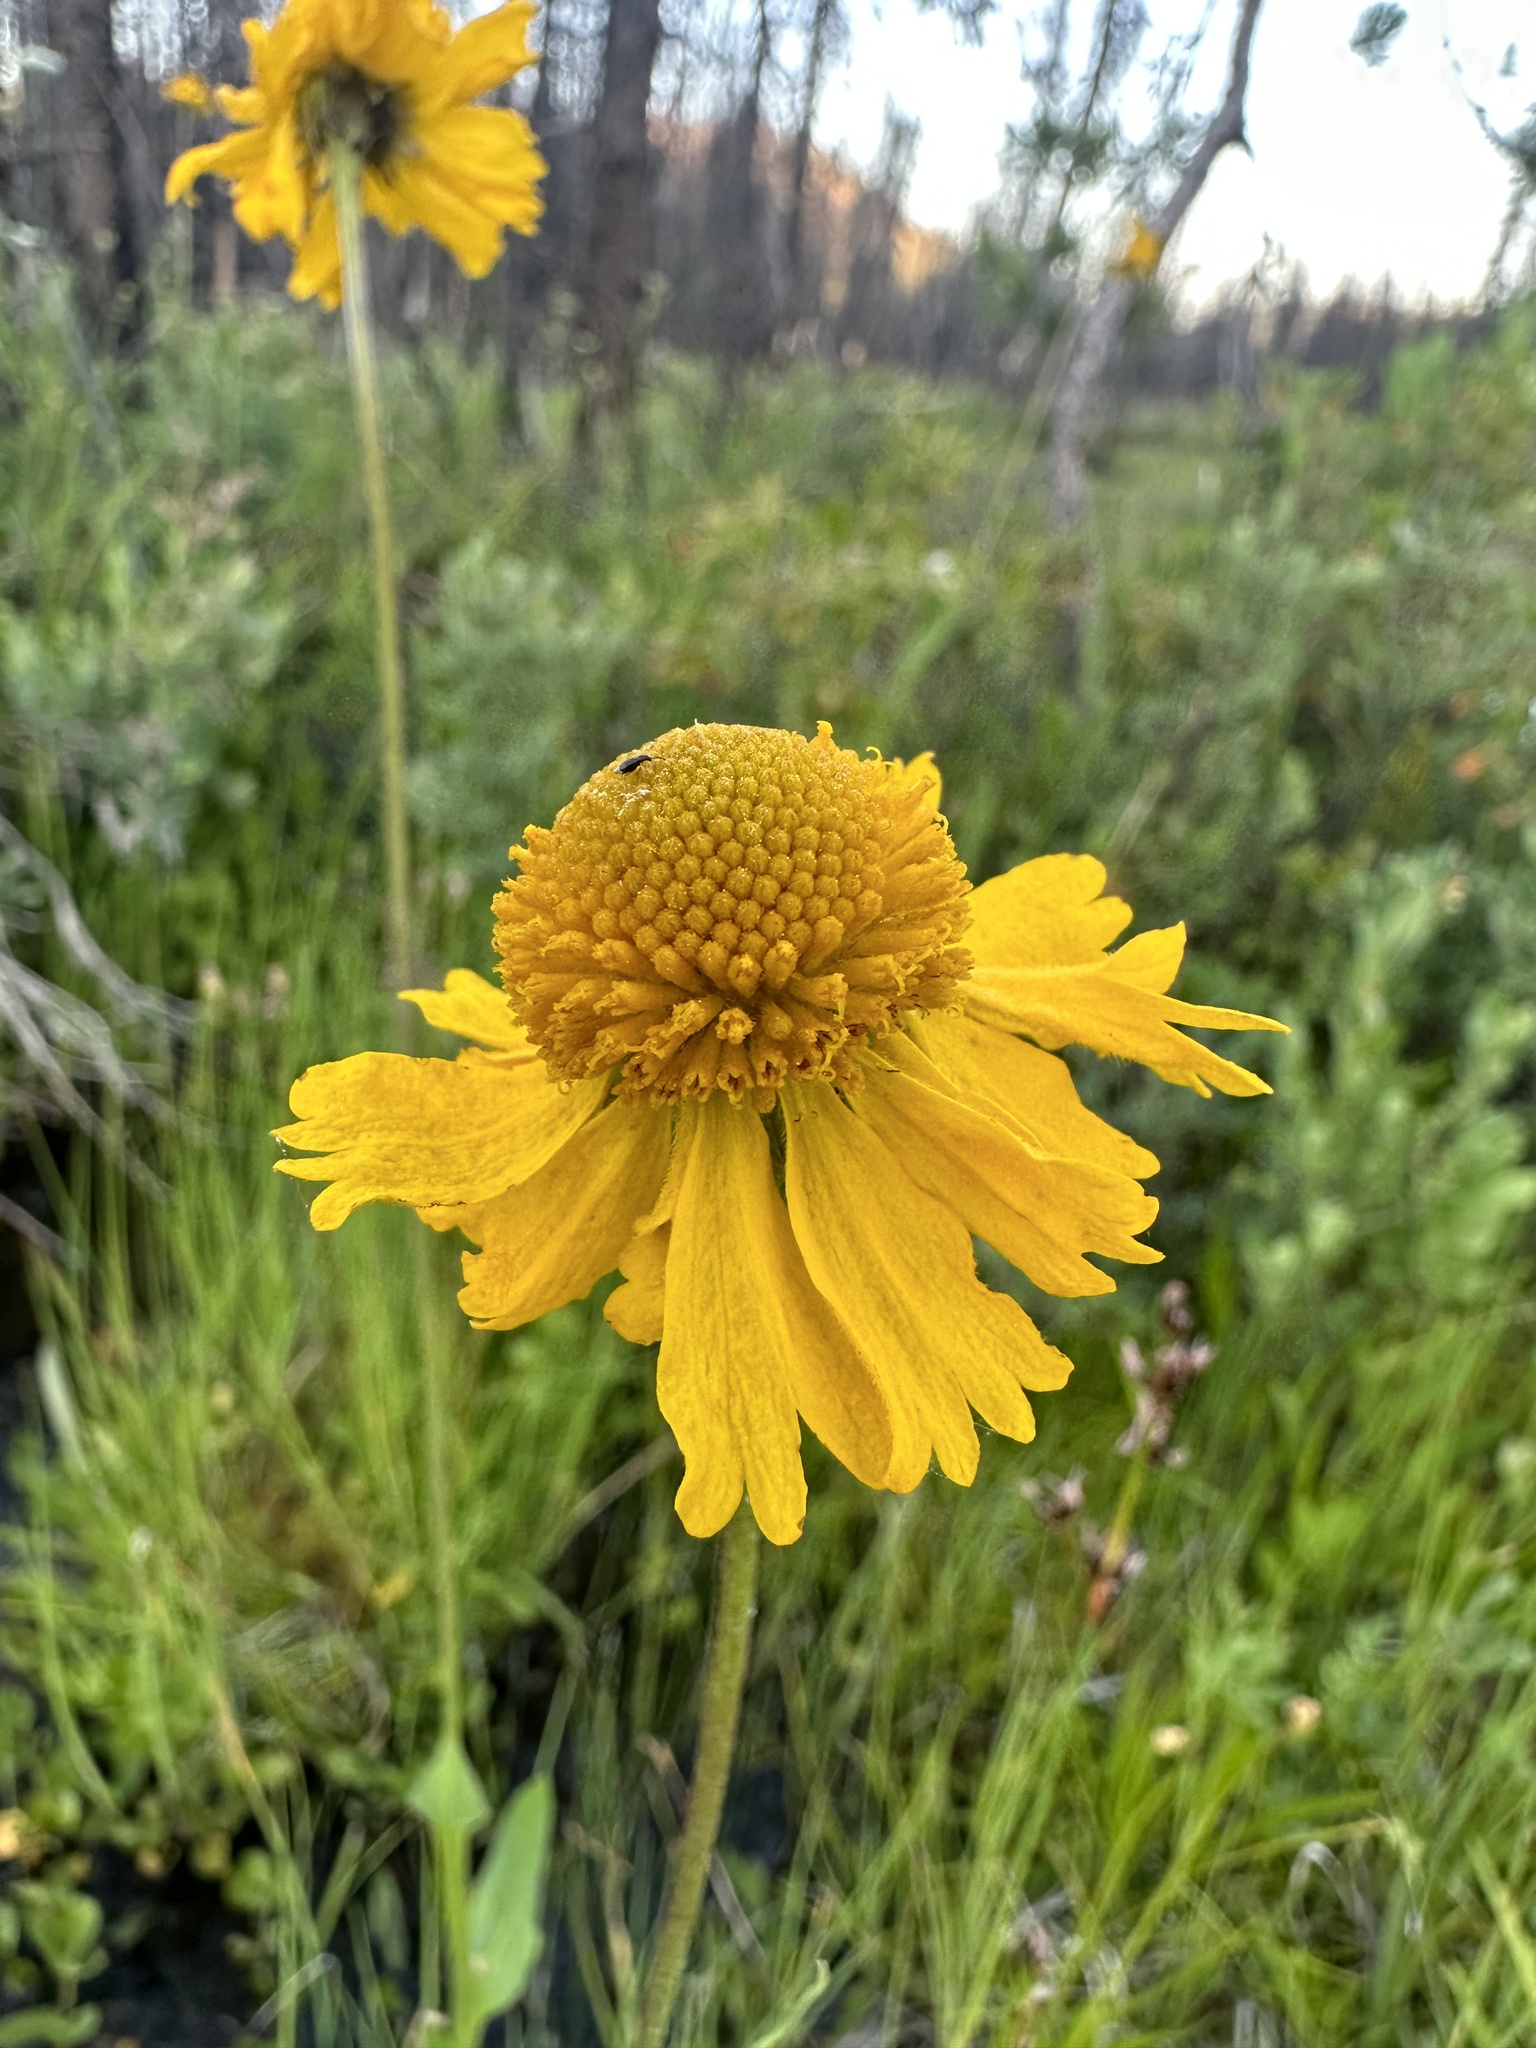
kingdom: Plantae
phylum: Tracheophyta
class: Magnoliopsida
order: Asterales
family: Asteraceae
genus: Helenium
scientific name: Helenium bigelovii
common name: Bigelow's sneezeweed
